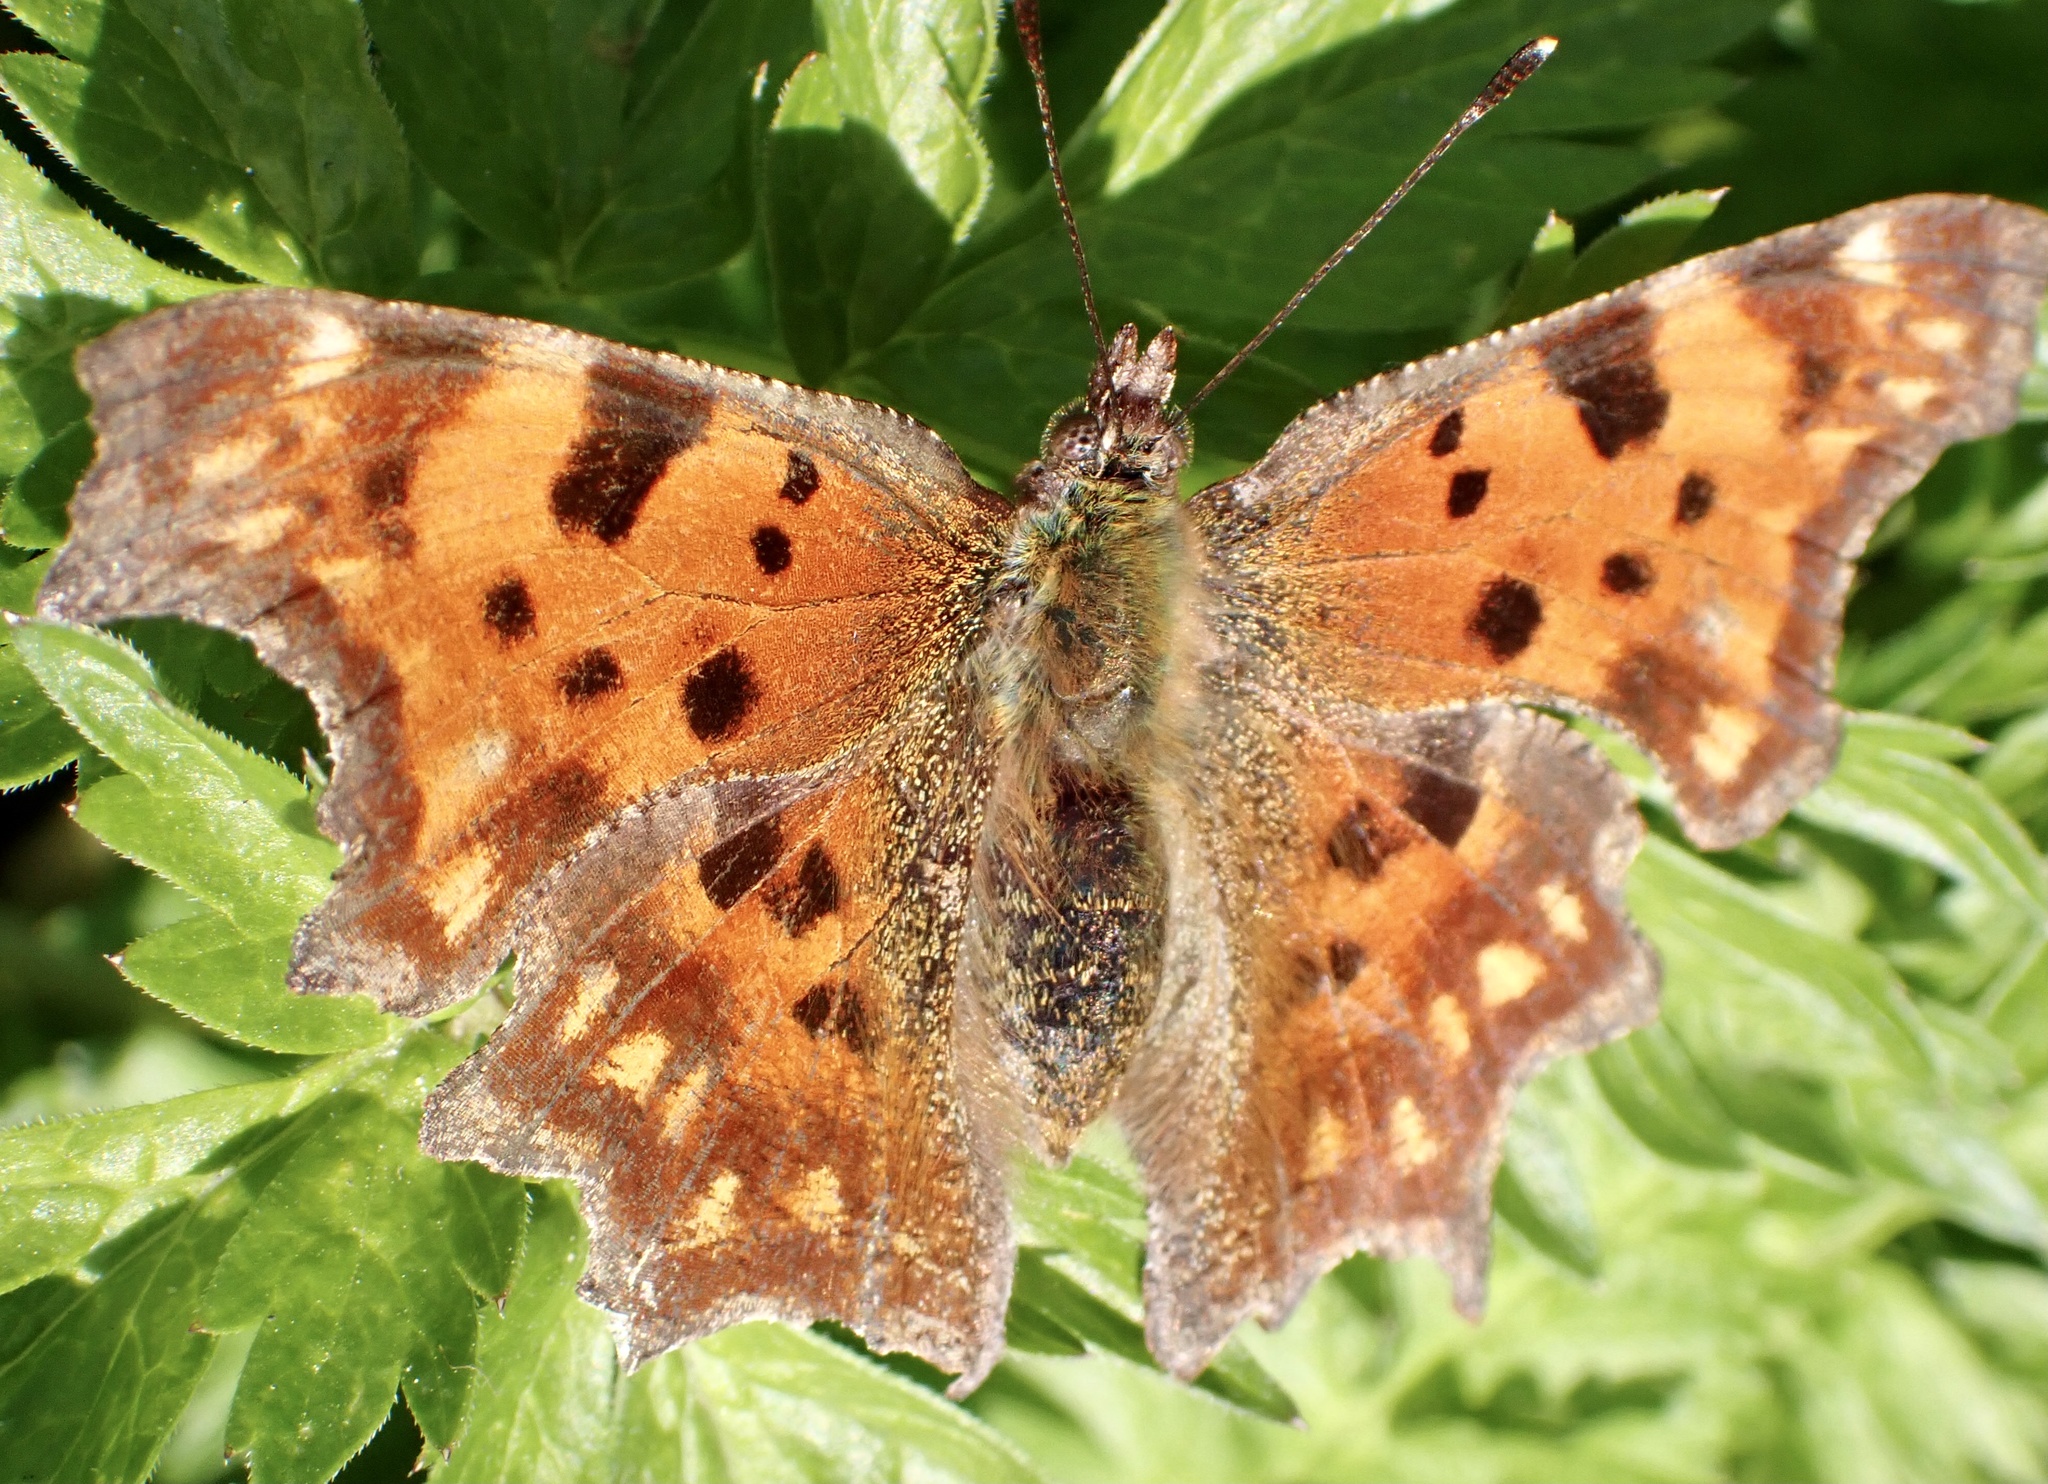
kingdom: Animalia
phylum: Arthropoda
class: Insecta
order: Lepidoptera
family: Nymphalidae
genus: Polygonia
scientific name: Polygonia c-album
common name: Comma
